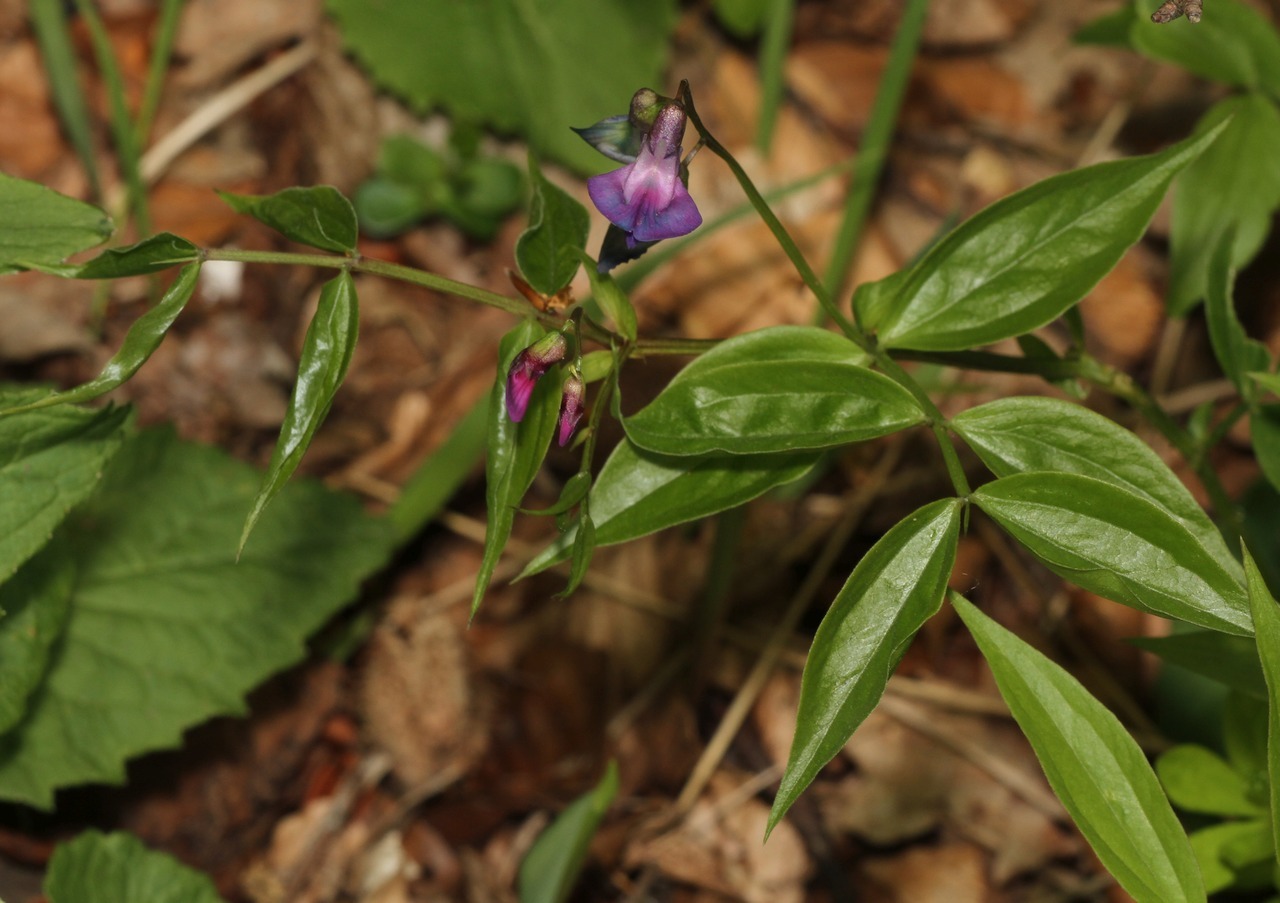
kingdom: Plantae
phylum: Tracheophyta
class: Magnoliopsida
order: Fabales
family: Fabaceae
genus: Lathyrus
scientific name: Lathyrus vernus
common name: Spring pea
